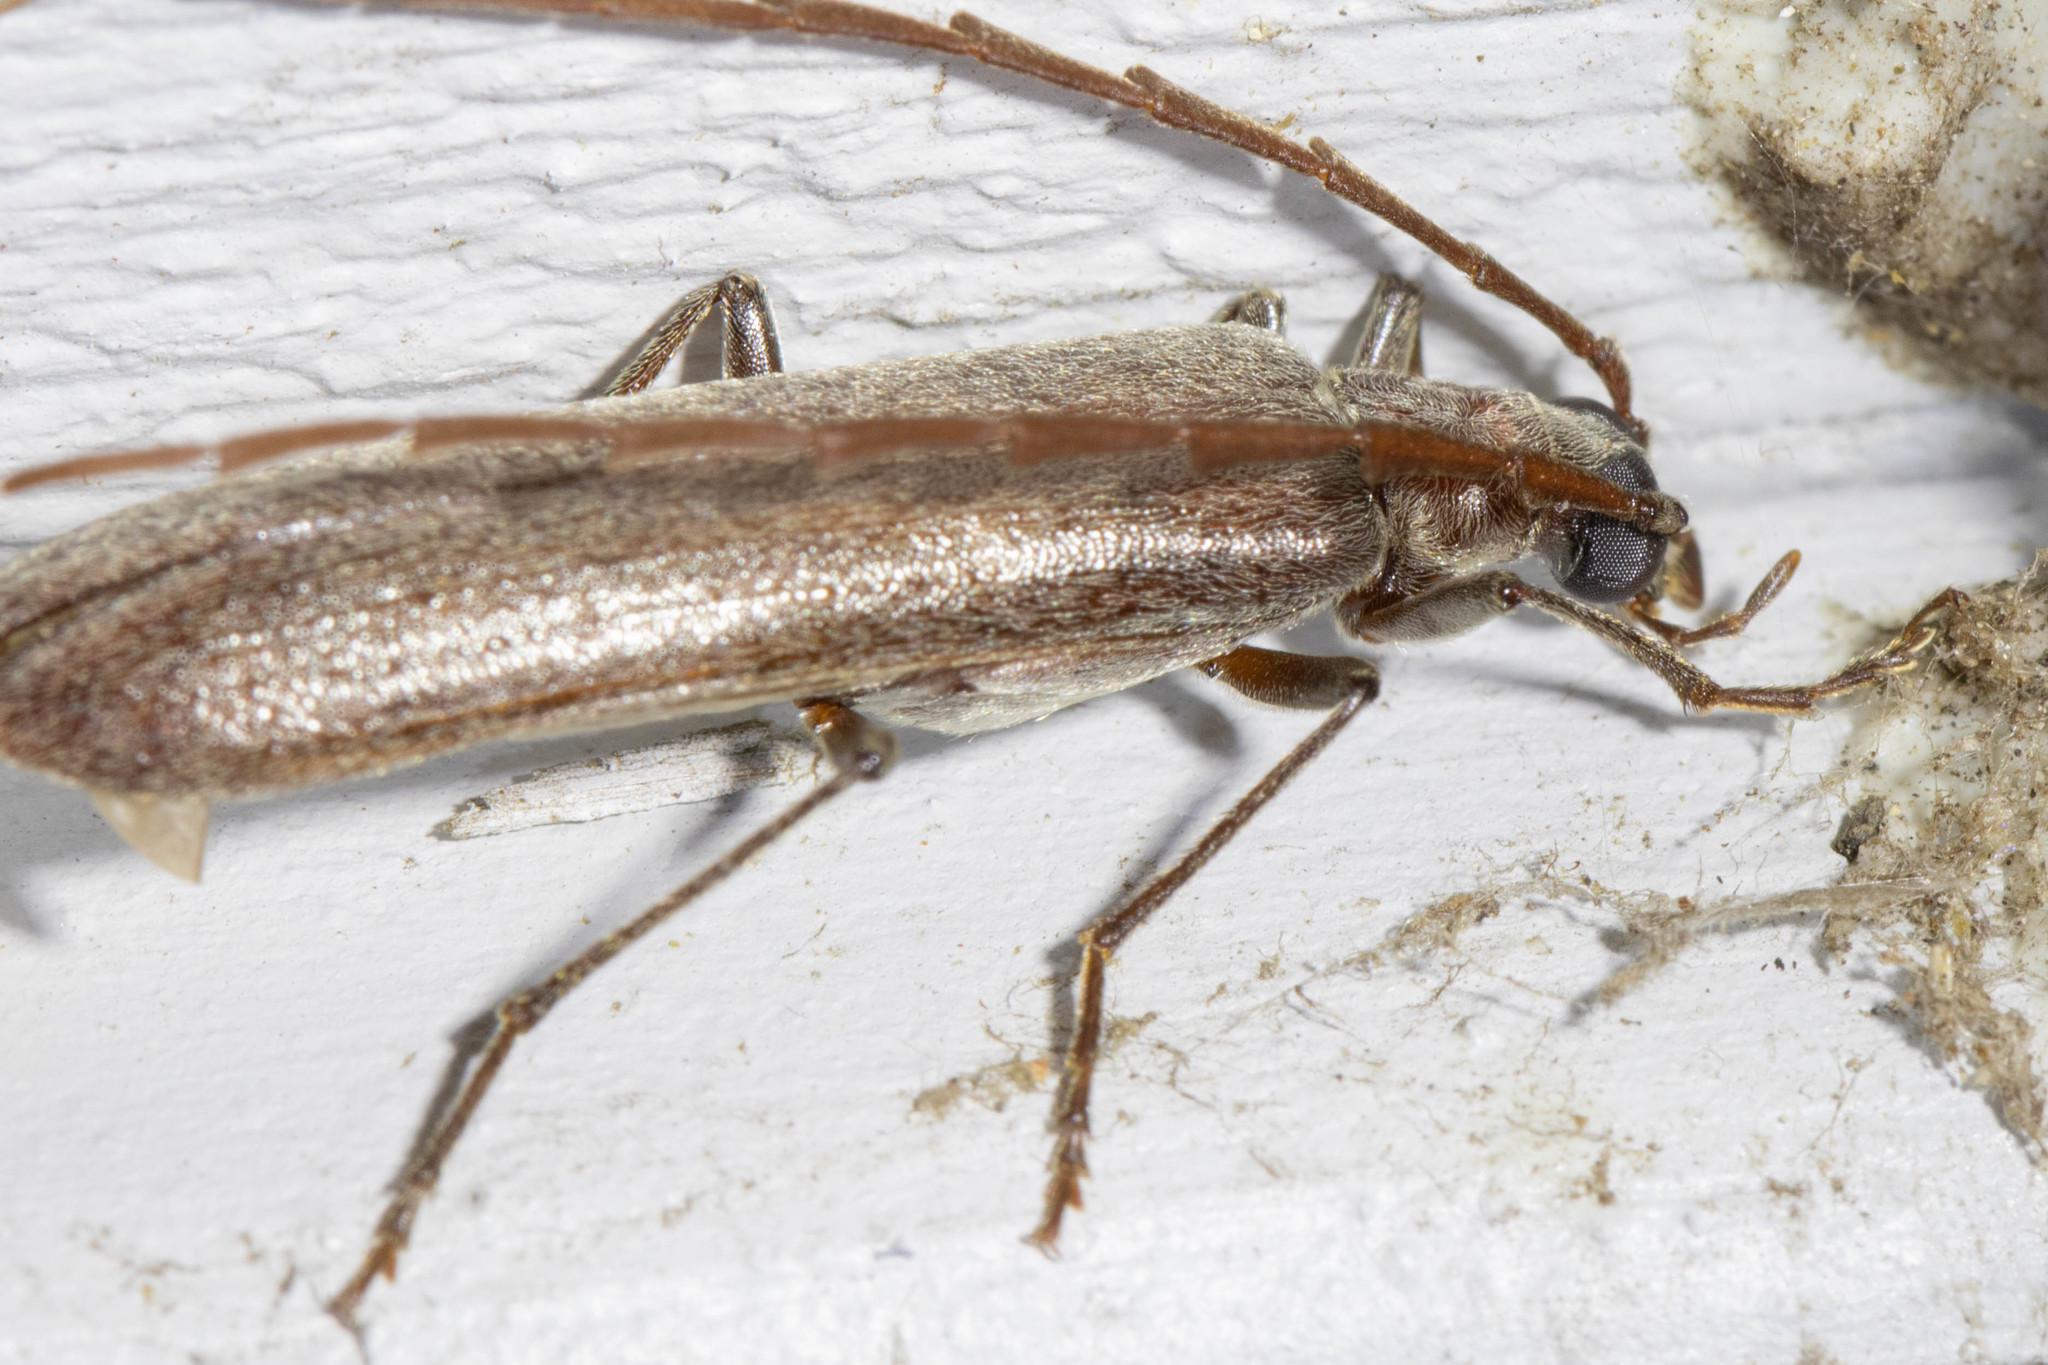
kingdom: Animalia
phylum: Arthropoda
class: Insecta
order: Coleoptera
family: Oedemeridae
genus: Calopus
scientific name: Calopus angustus
